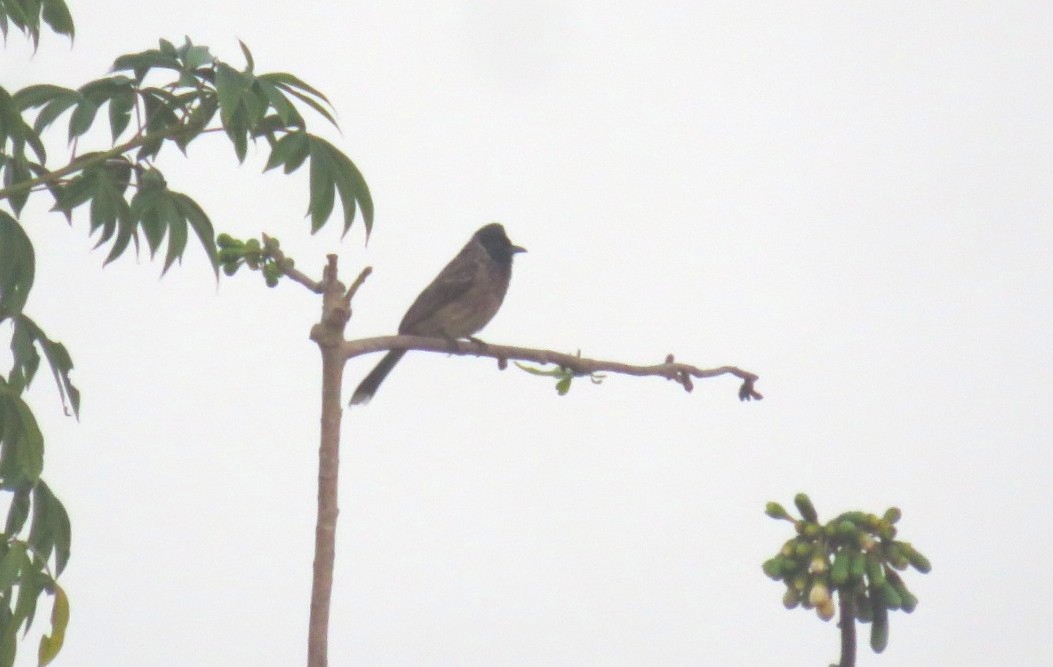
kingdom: Animalia
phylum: Chordata
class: Aves
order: Passeriformes
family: Pycnonotidae
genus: Pycnonotus
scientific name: Pycnonotus cafer
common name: Red-vented bulbul
